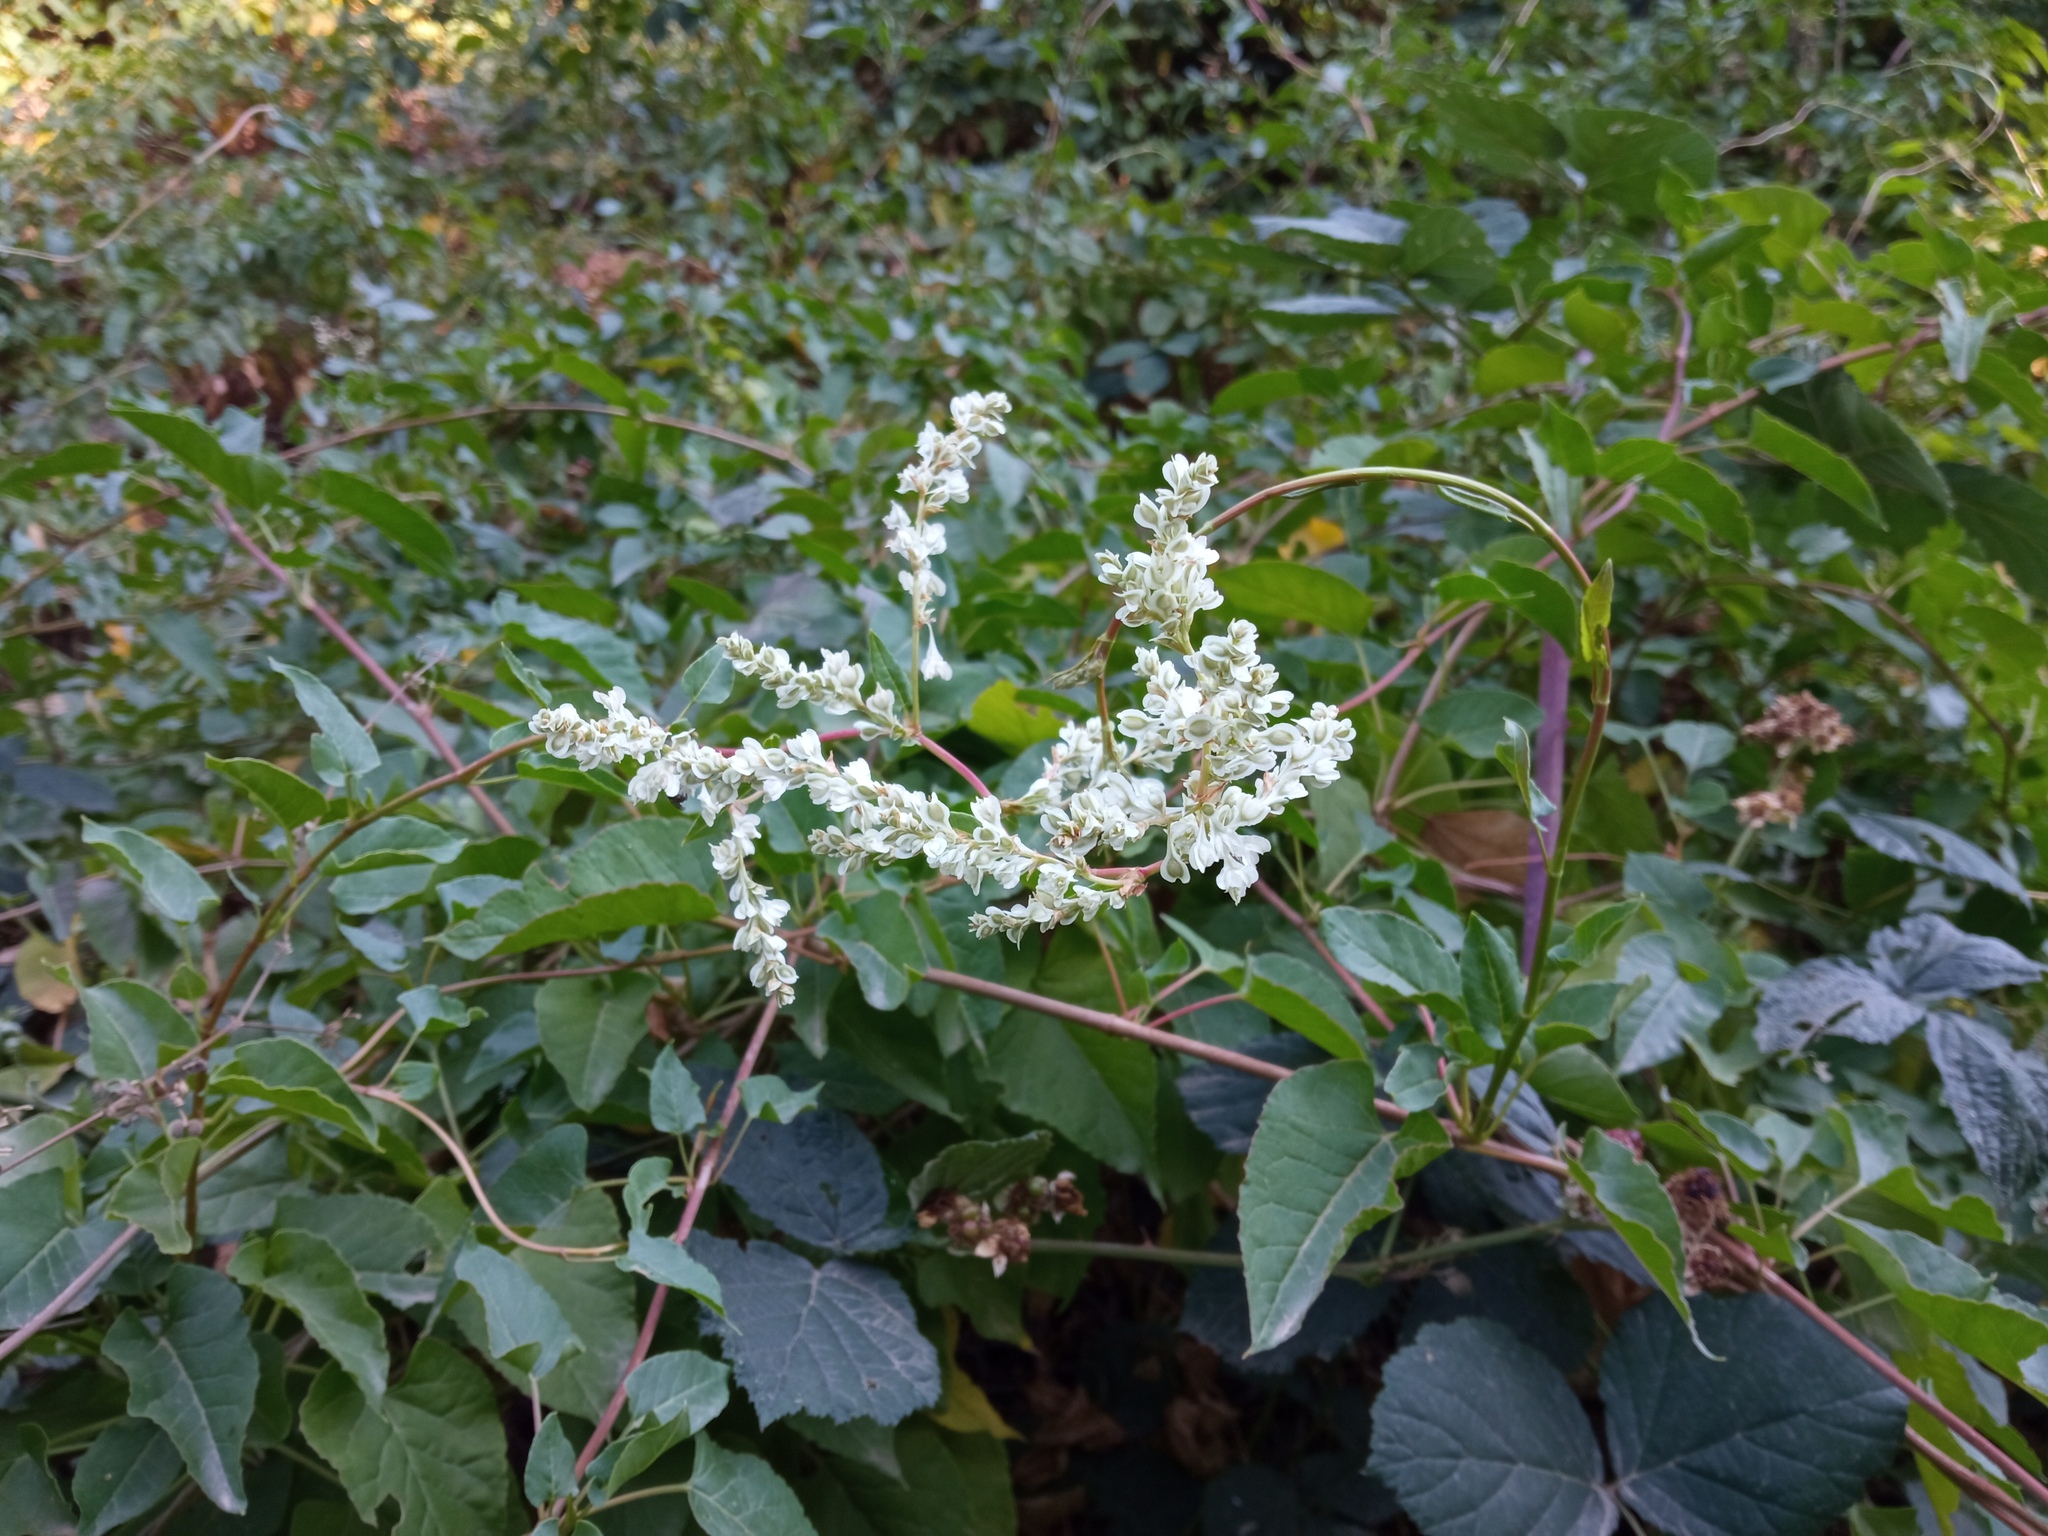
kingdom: Plantae
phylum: Tracheophyta
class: Magnoliopsida
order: Caryophyllales
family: Polygonaceae
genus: Fallopia
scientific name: Fallopia baldschuanica
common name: Russian-vine
